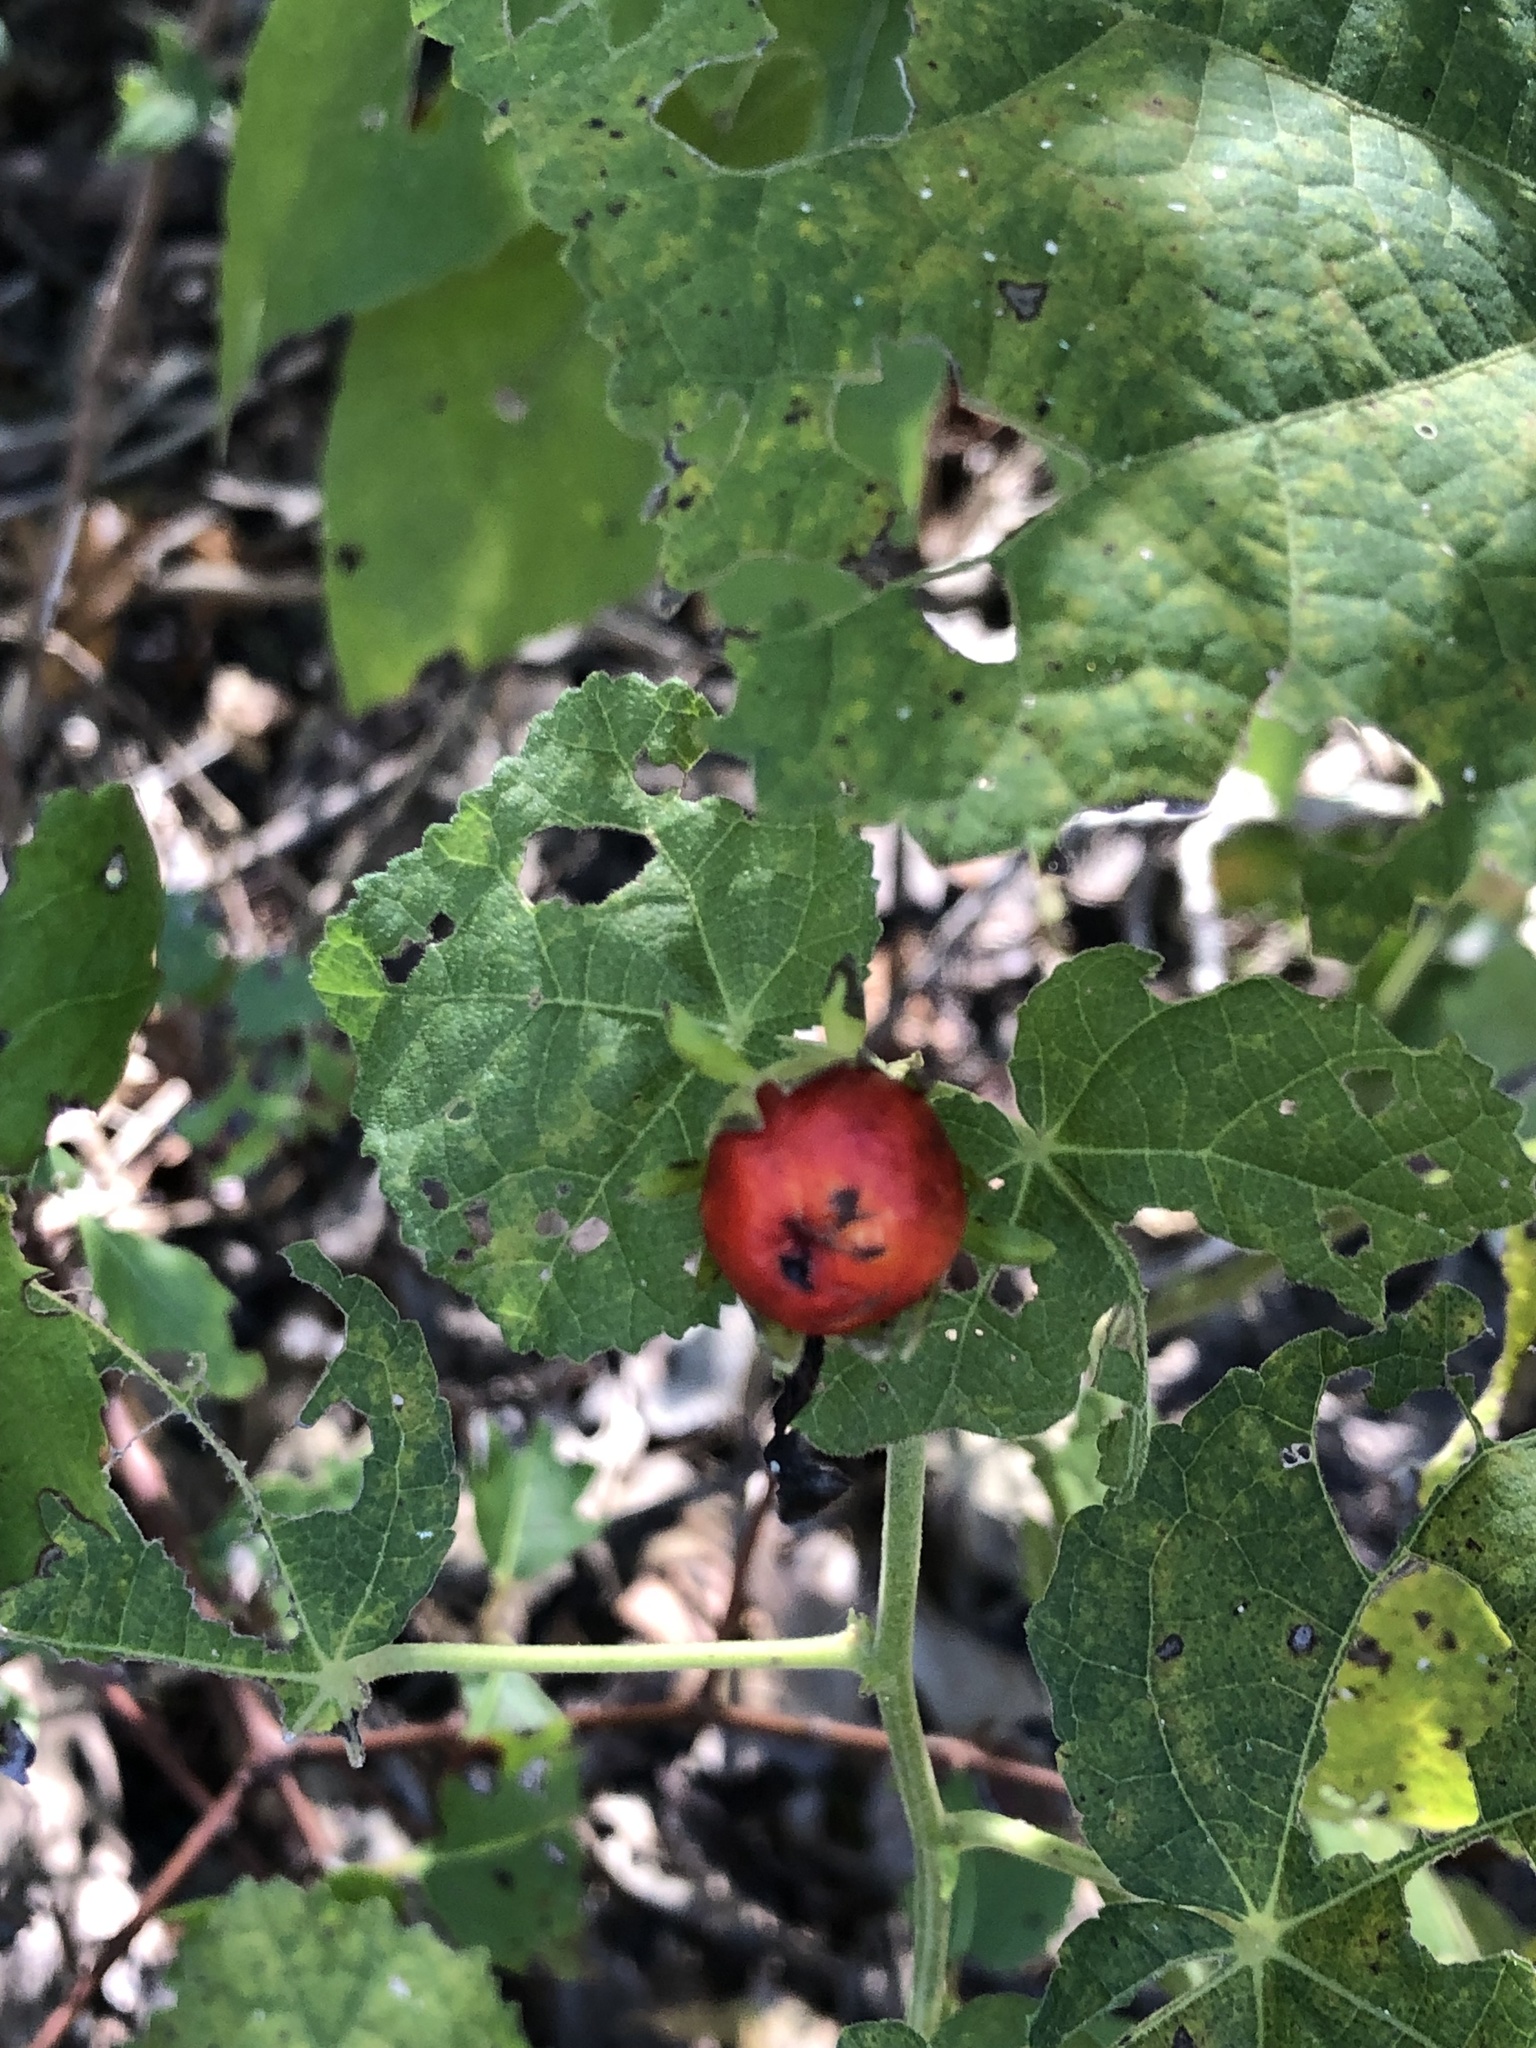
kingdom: Plantae
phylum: Tracheophyta
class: Magnoliopsida
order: Malvales
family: Malvaceae
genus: Malvaviscus
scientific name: Malvaviscus arboreus
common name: Wax mallow
